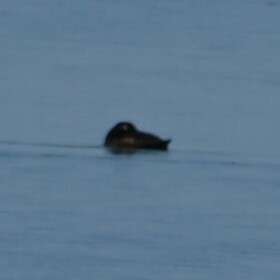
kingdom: Animalia
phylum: Chordata
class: Aves
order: Anseriformes
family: Anatidae
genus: Melanitta
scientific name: Melanitta deglandi
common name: White-winged scoter
